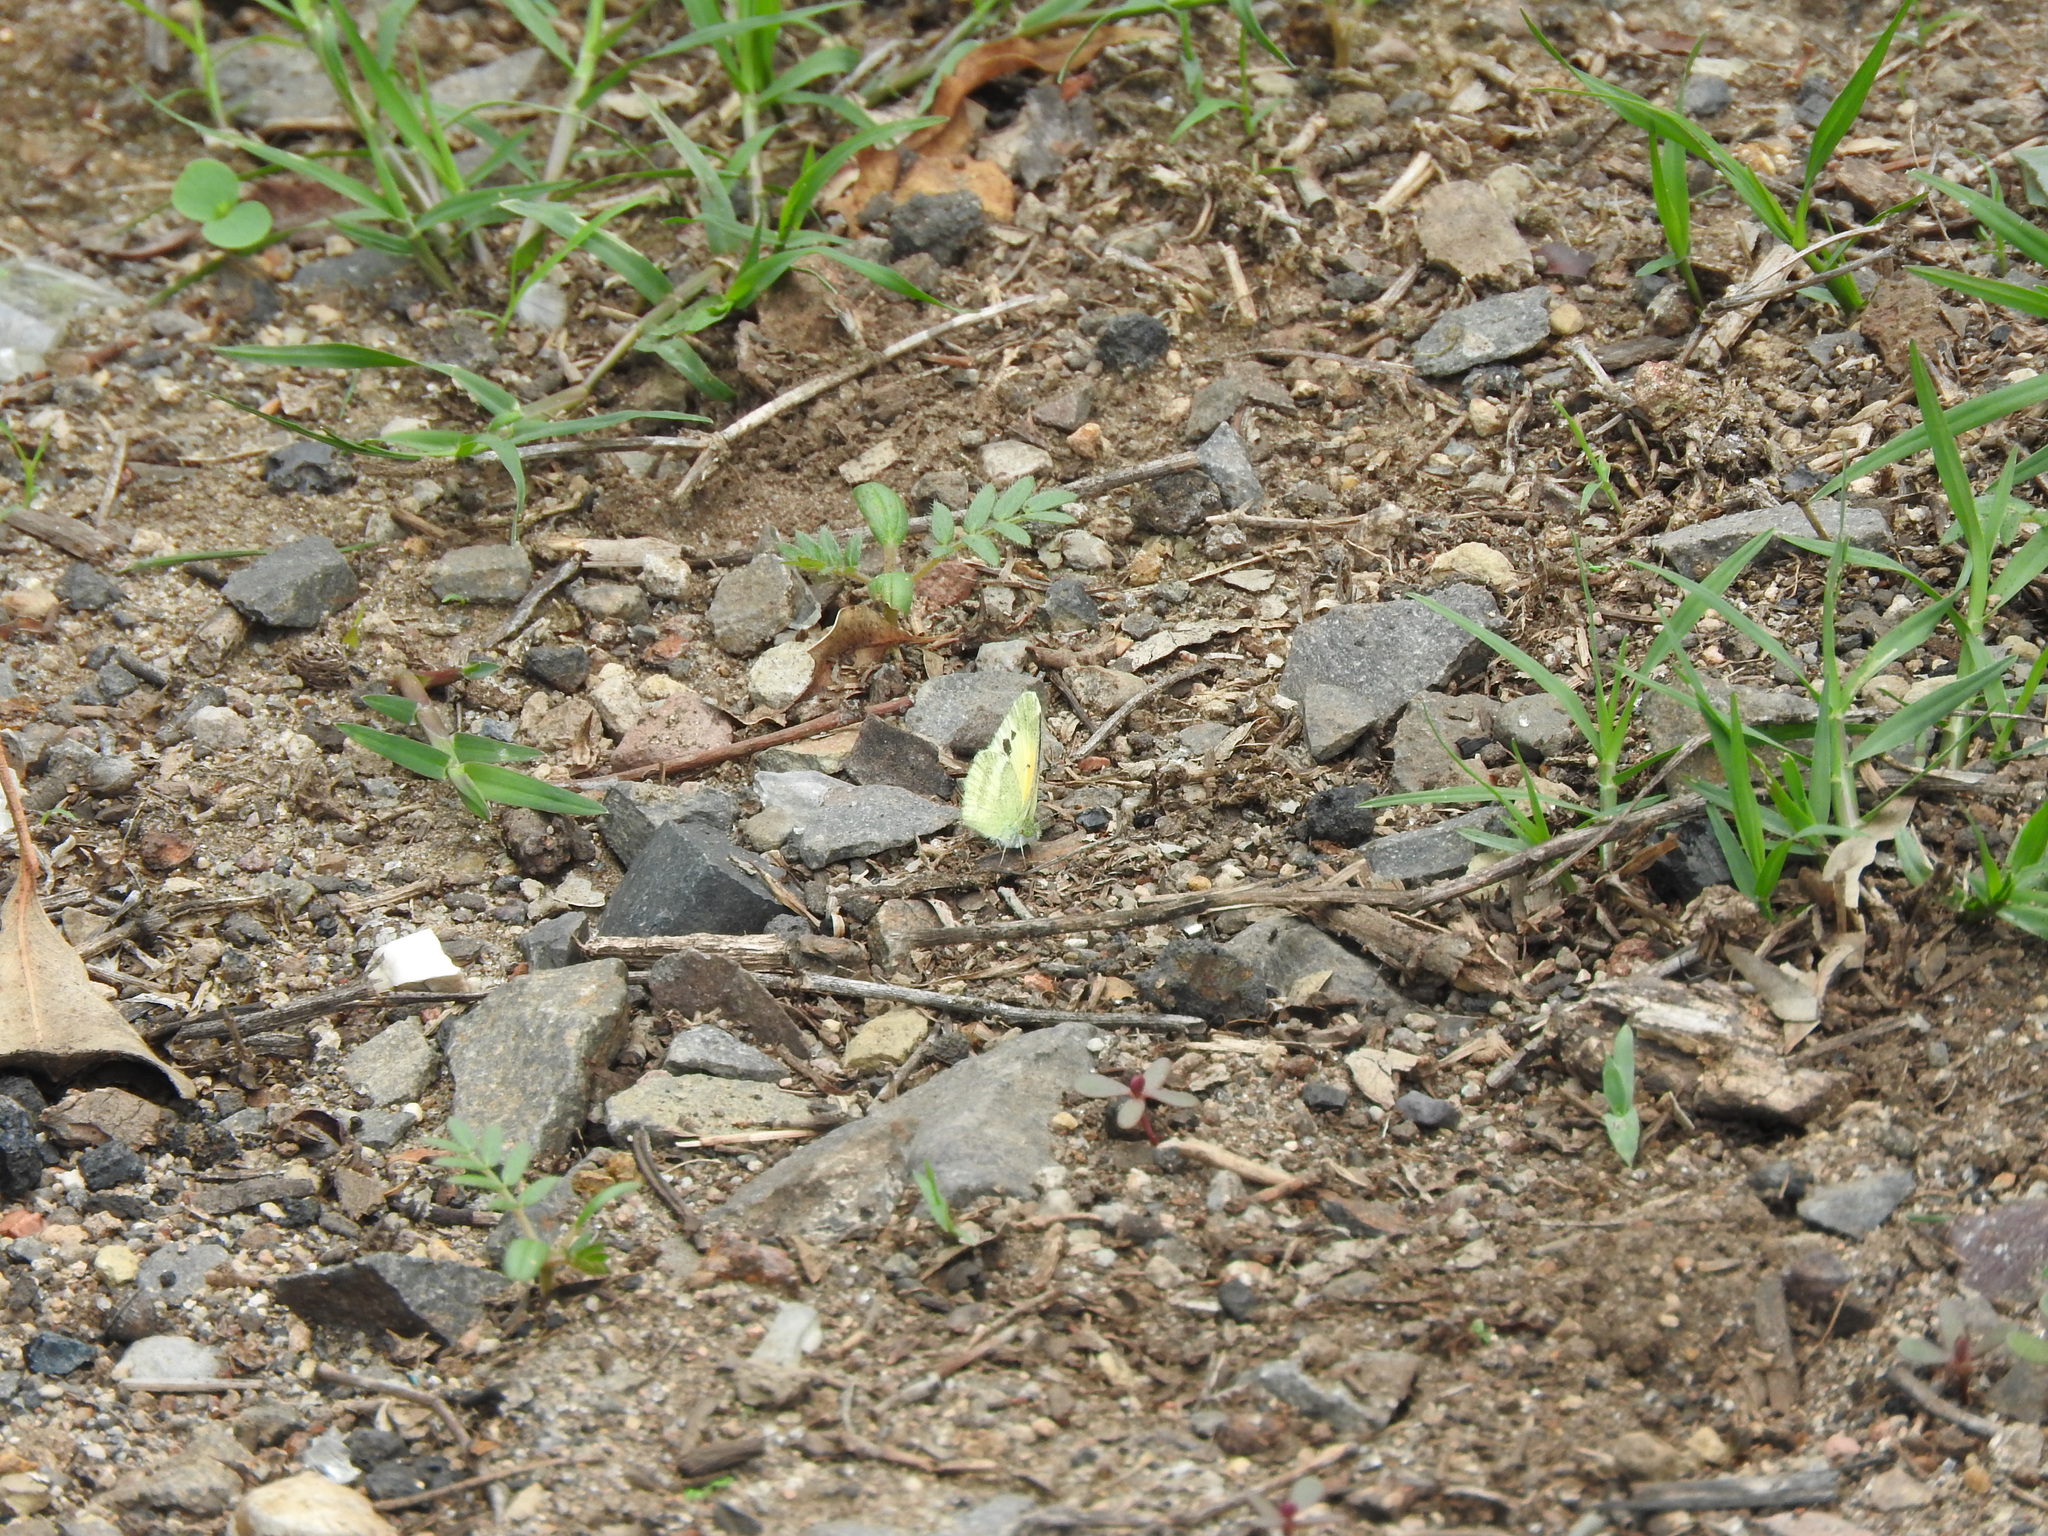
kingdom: Animalia
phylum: Arthropoda
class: Insecta
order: Lepidoptera
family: Pieridae
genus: Nathalis
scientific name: Nathalis iole
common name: Dainty sulphur
